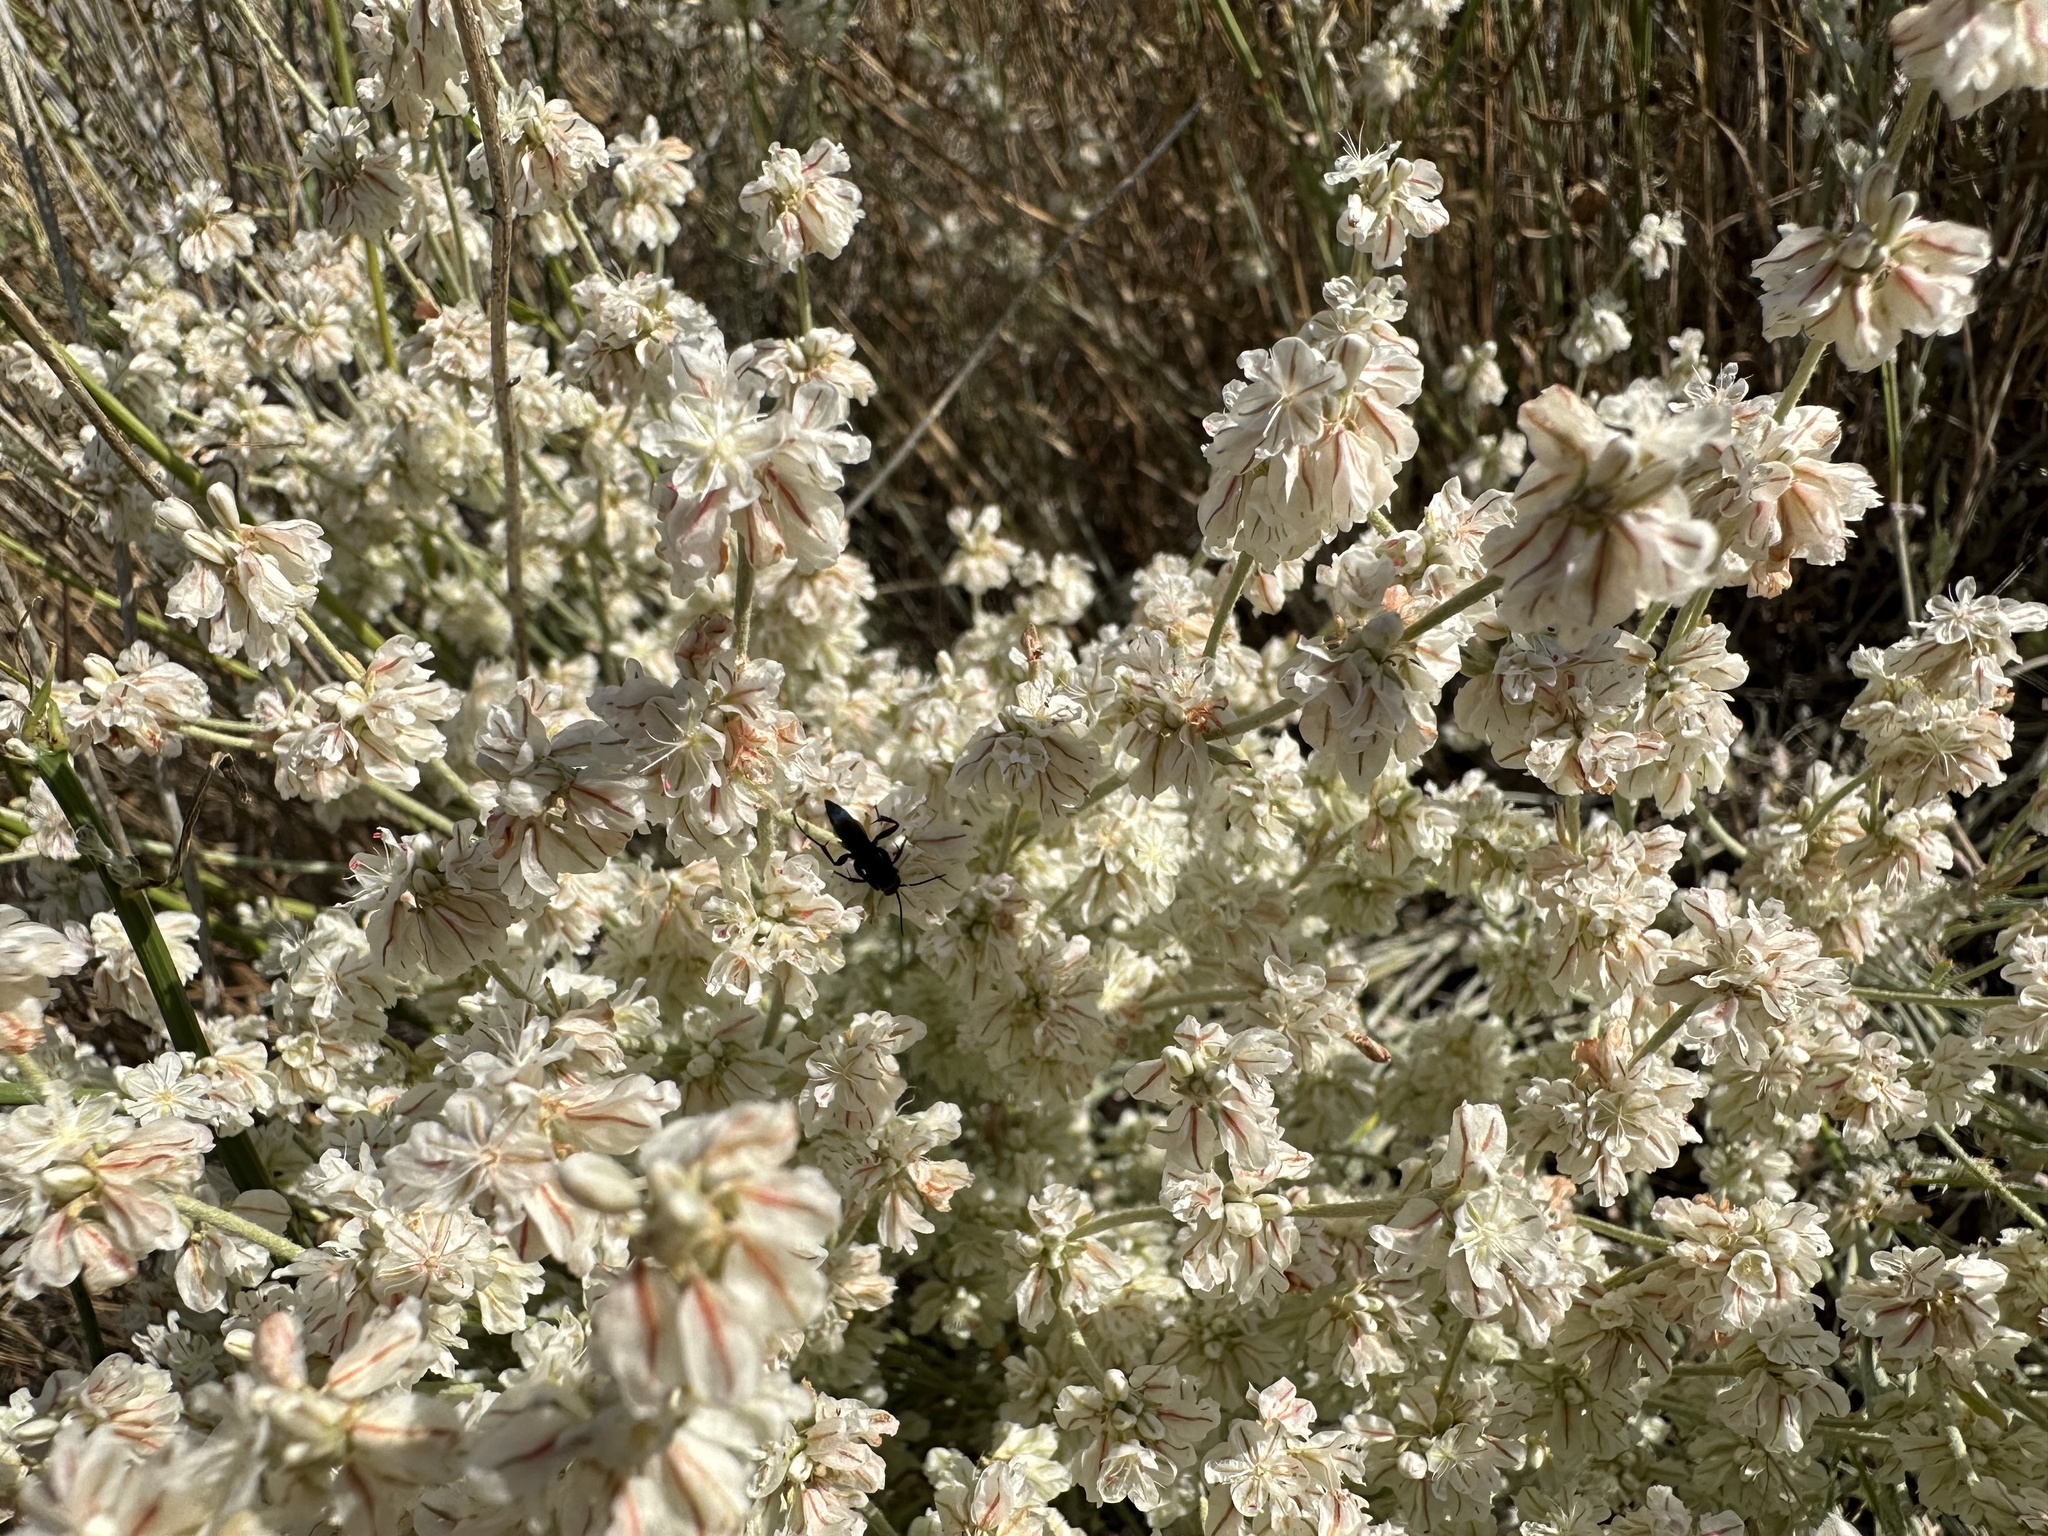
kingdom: Plantae
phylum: Tracheophyta
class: Magnoliopsida
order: Caryophyllales
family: Polygonaceae
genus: Eriogonum
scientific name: Eriogonum niveum
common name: Snow wild buckwheat
